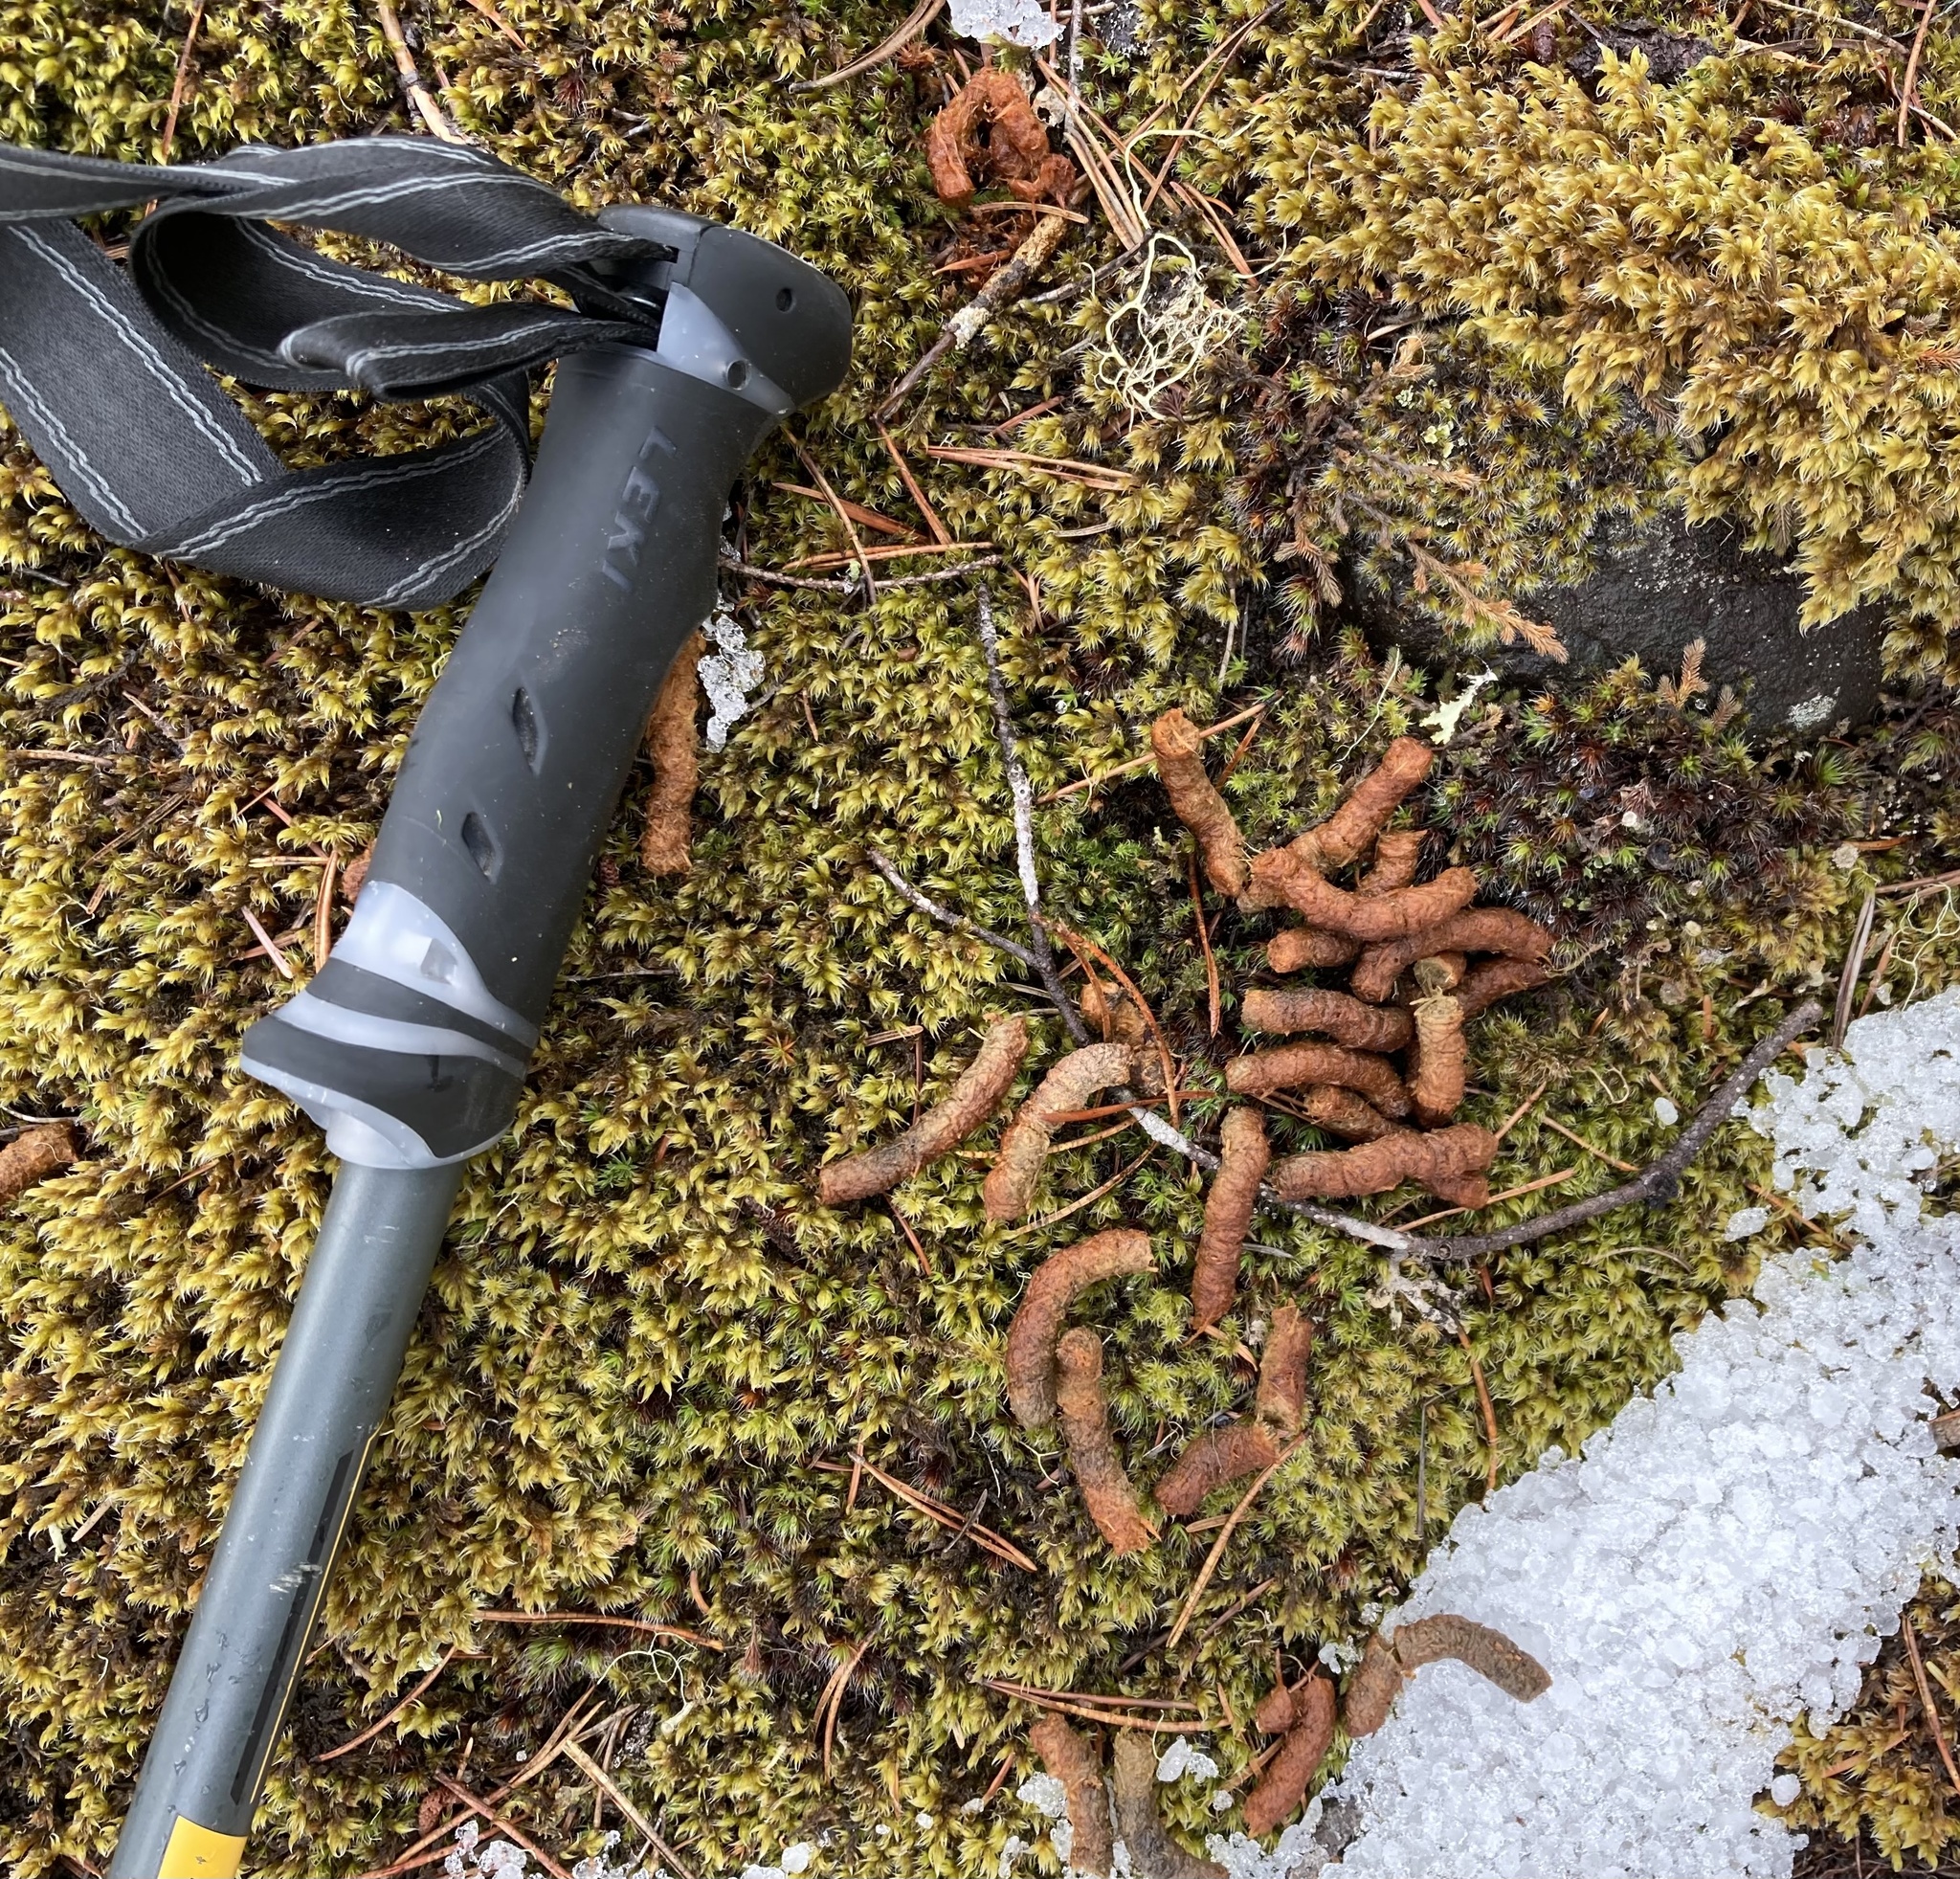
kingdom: Animalia
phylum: Chordata
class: Aves
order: Galliformes
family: Phasianidae
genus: Dendragapus
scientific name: Dendragapus fuliginosus
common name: Sooty grouse
